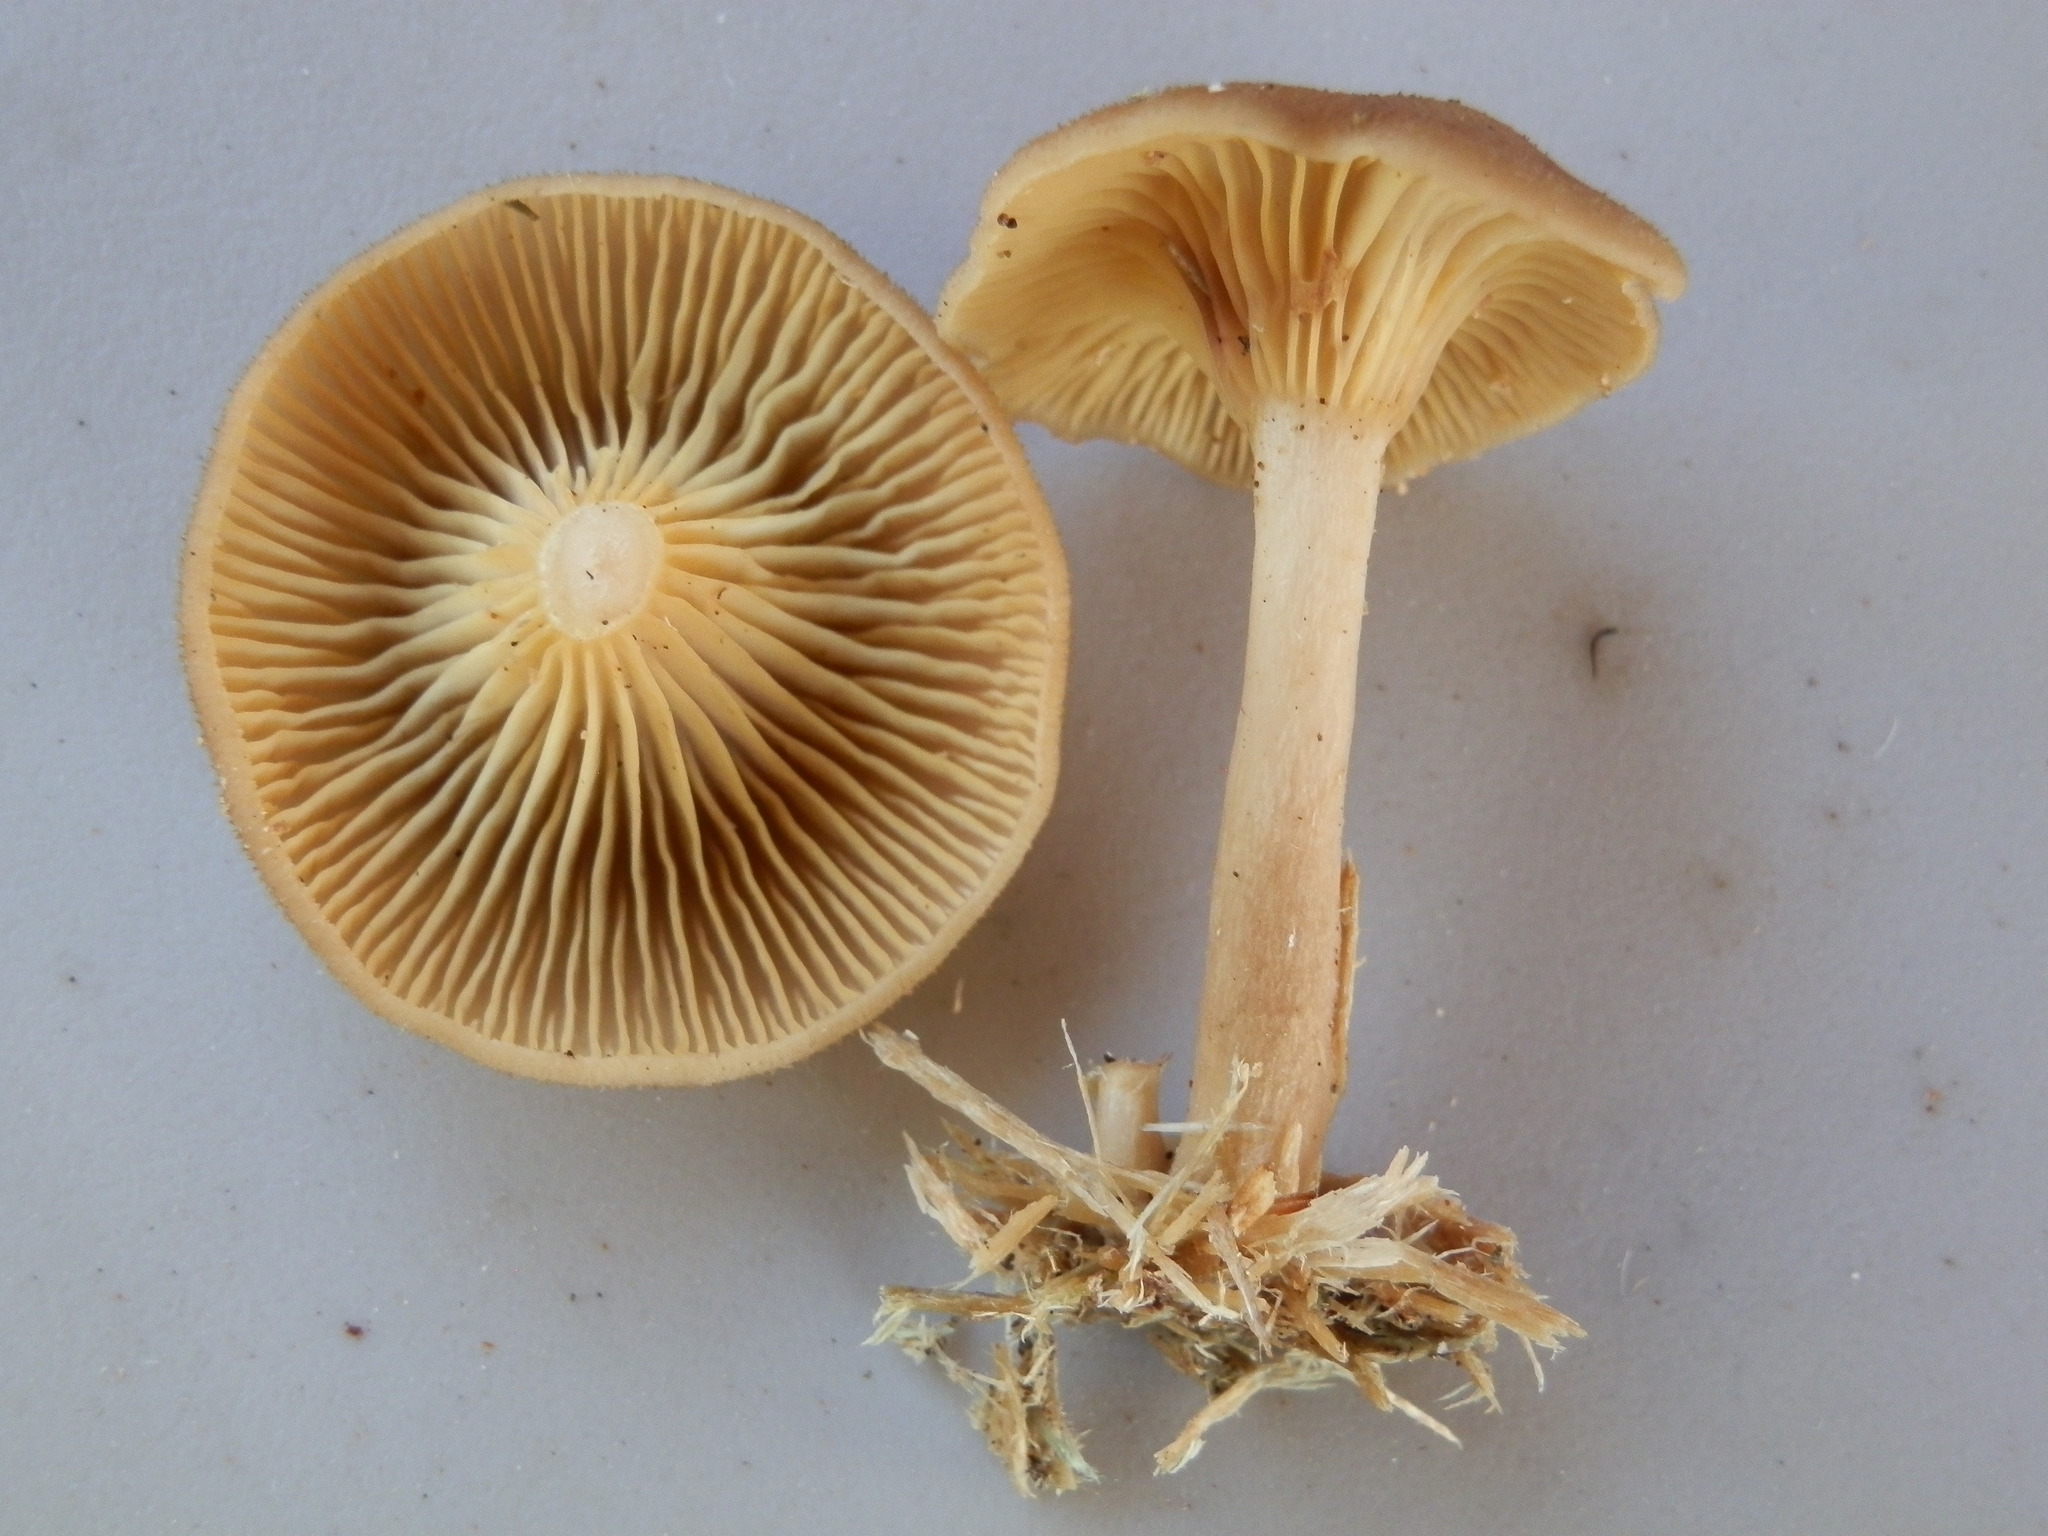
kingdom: Fungi
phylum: Basidiomycota
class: Agaricomycetes
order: Agaricales
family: Hygrophoraceae
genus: Pseudoarmillariella
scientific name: Pseudoarmillariella ectypoides
